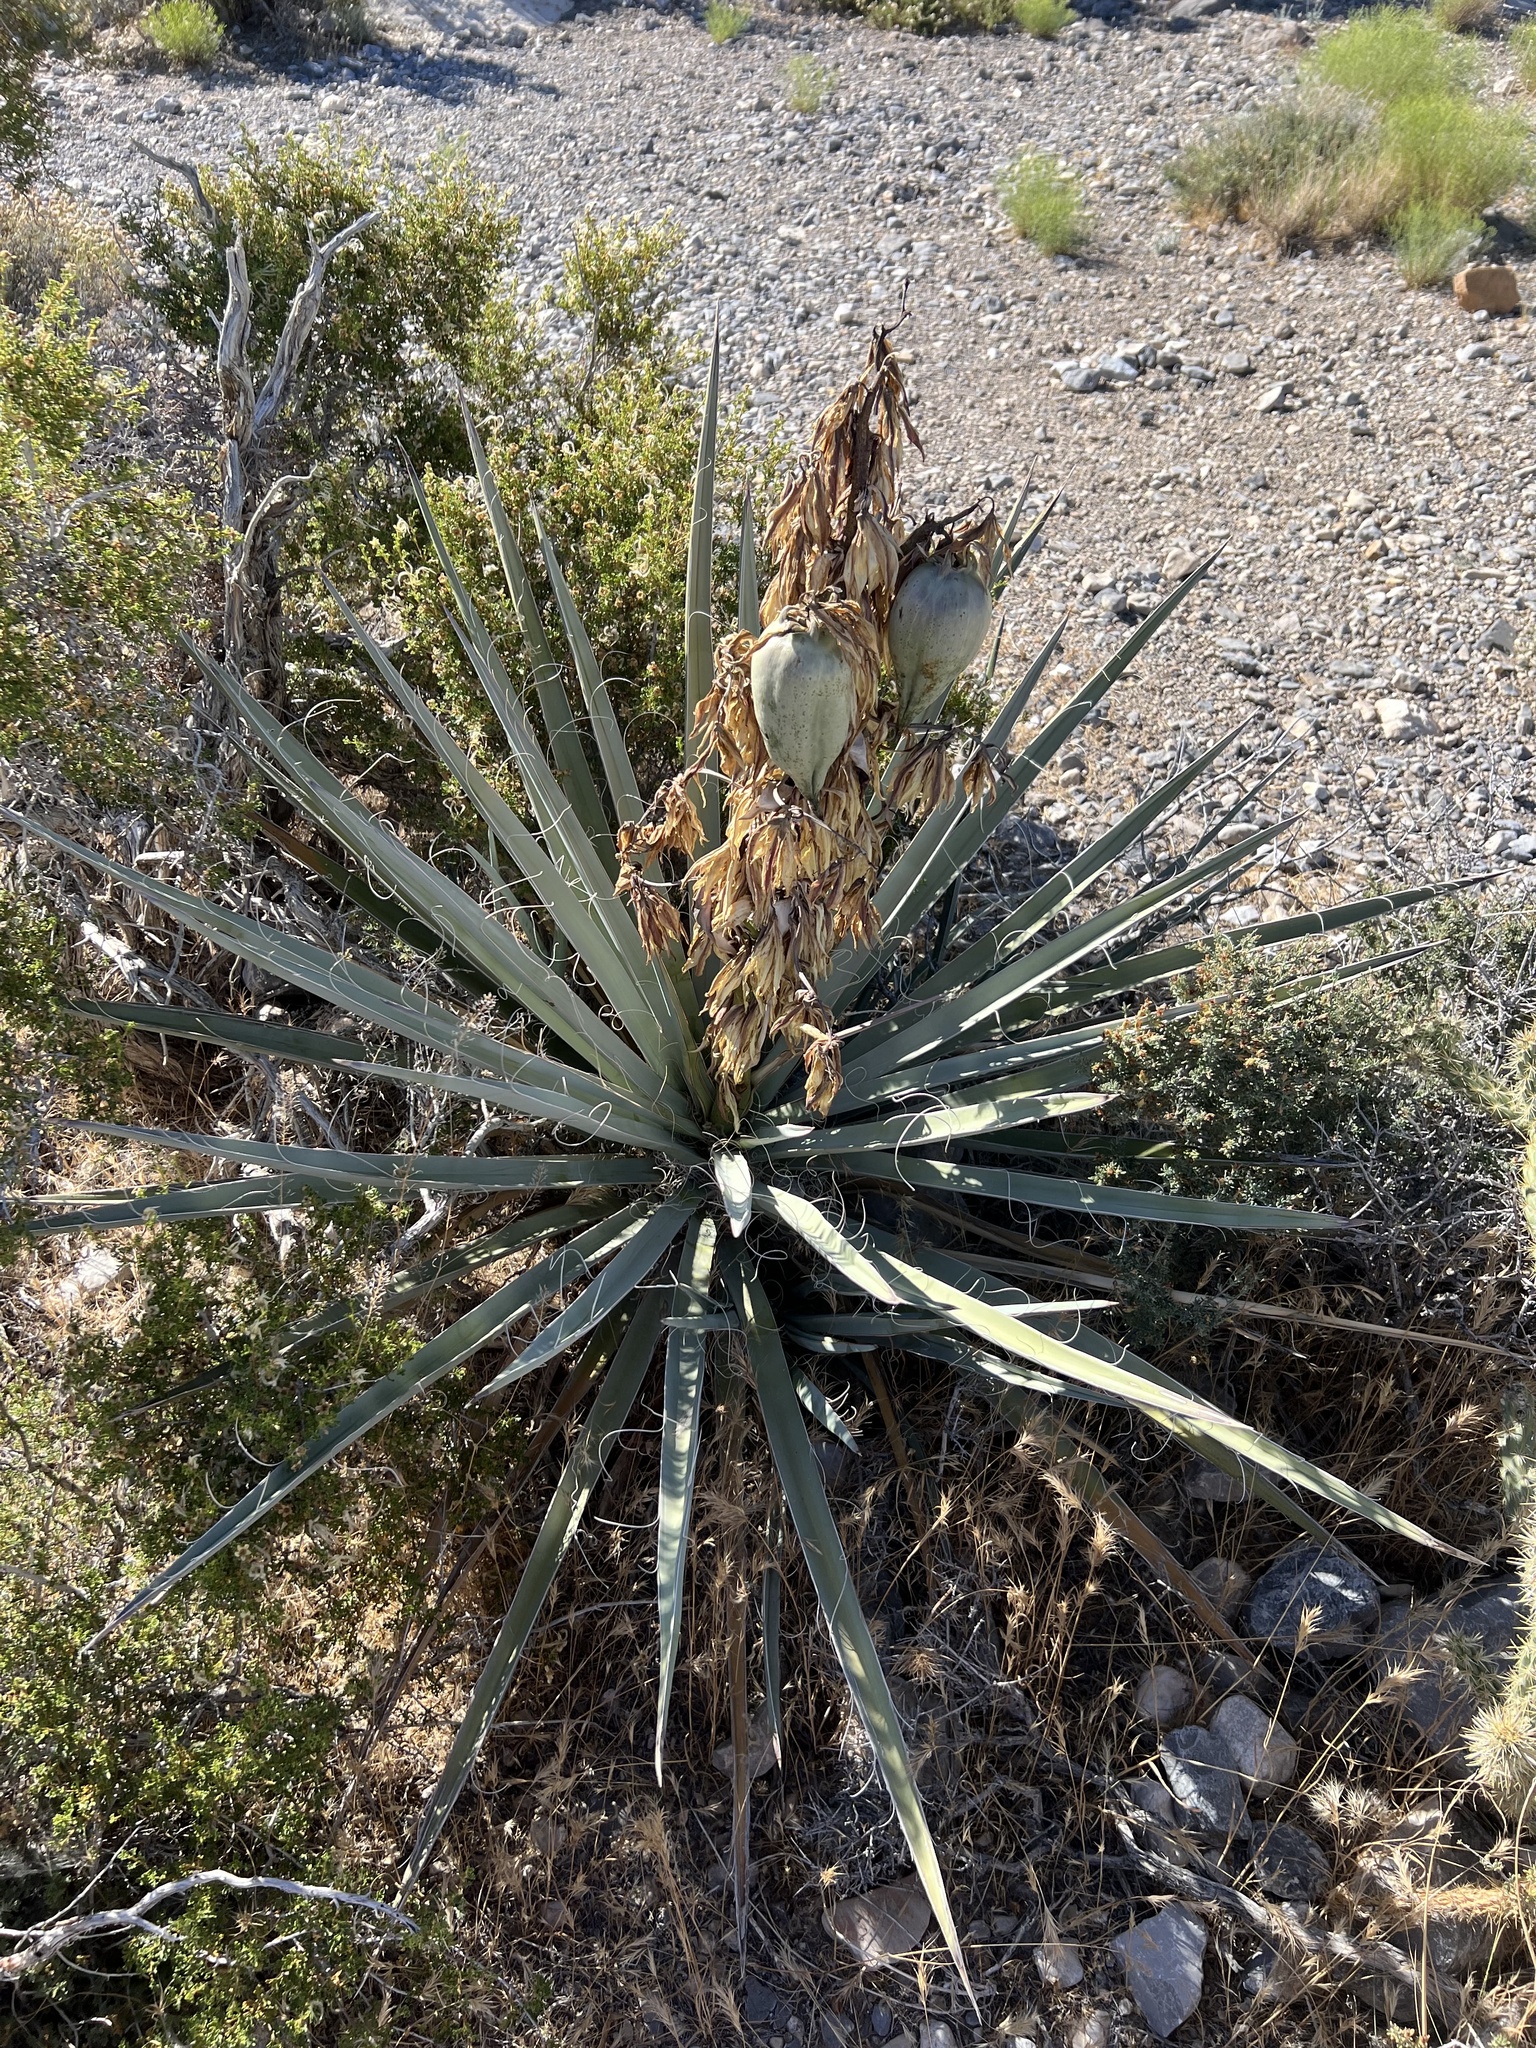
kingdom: Plantae
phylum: Tracheophyta
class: Liliopsida
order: Asparagales
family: Asparagaceae
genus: Yucca
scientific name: Yucca baccata
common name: Banana yucca
